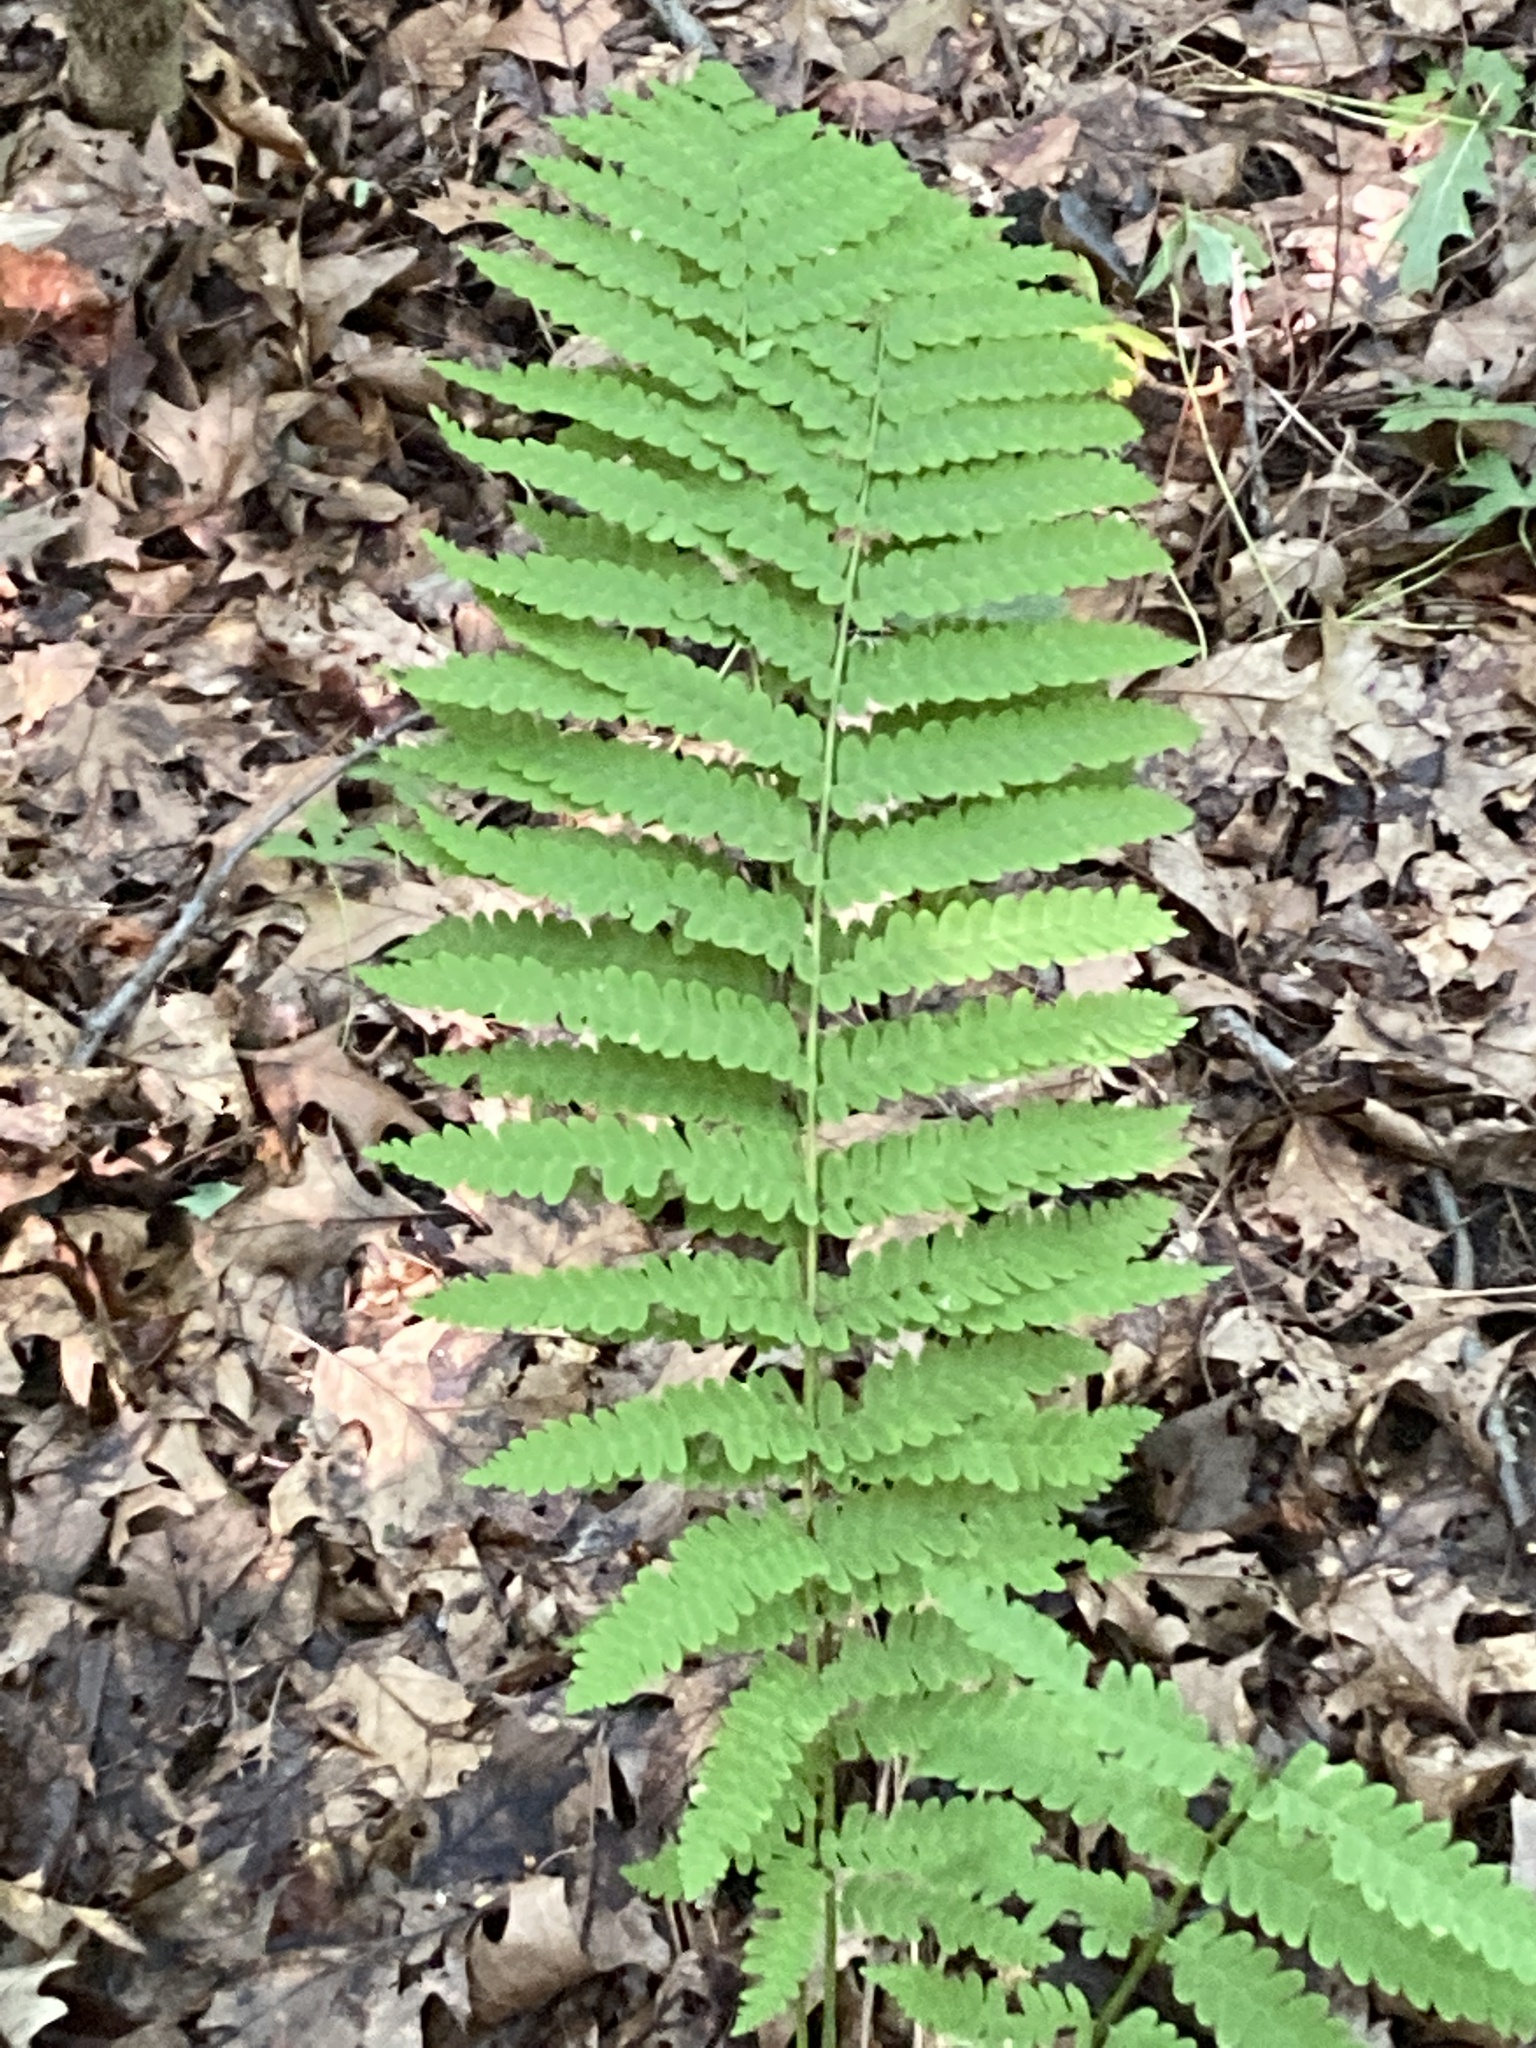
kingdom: Plantae
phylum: Tracheophyta
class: Polypodiopsida
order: Osmundales
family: Osmundaceae
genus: Claytosmunda
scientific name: Claytosmunda claytoniana
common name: Clayton's fern
